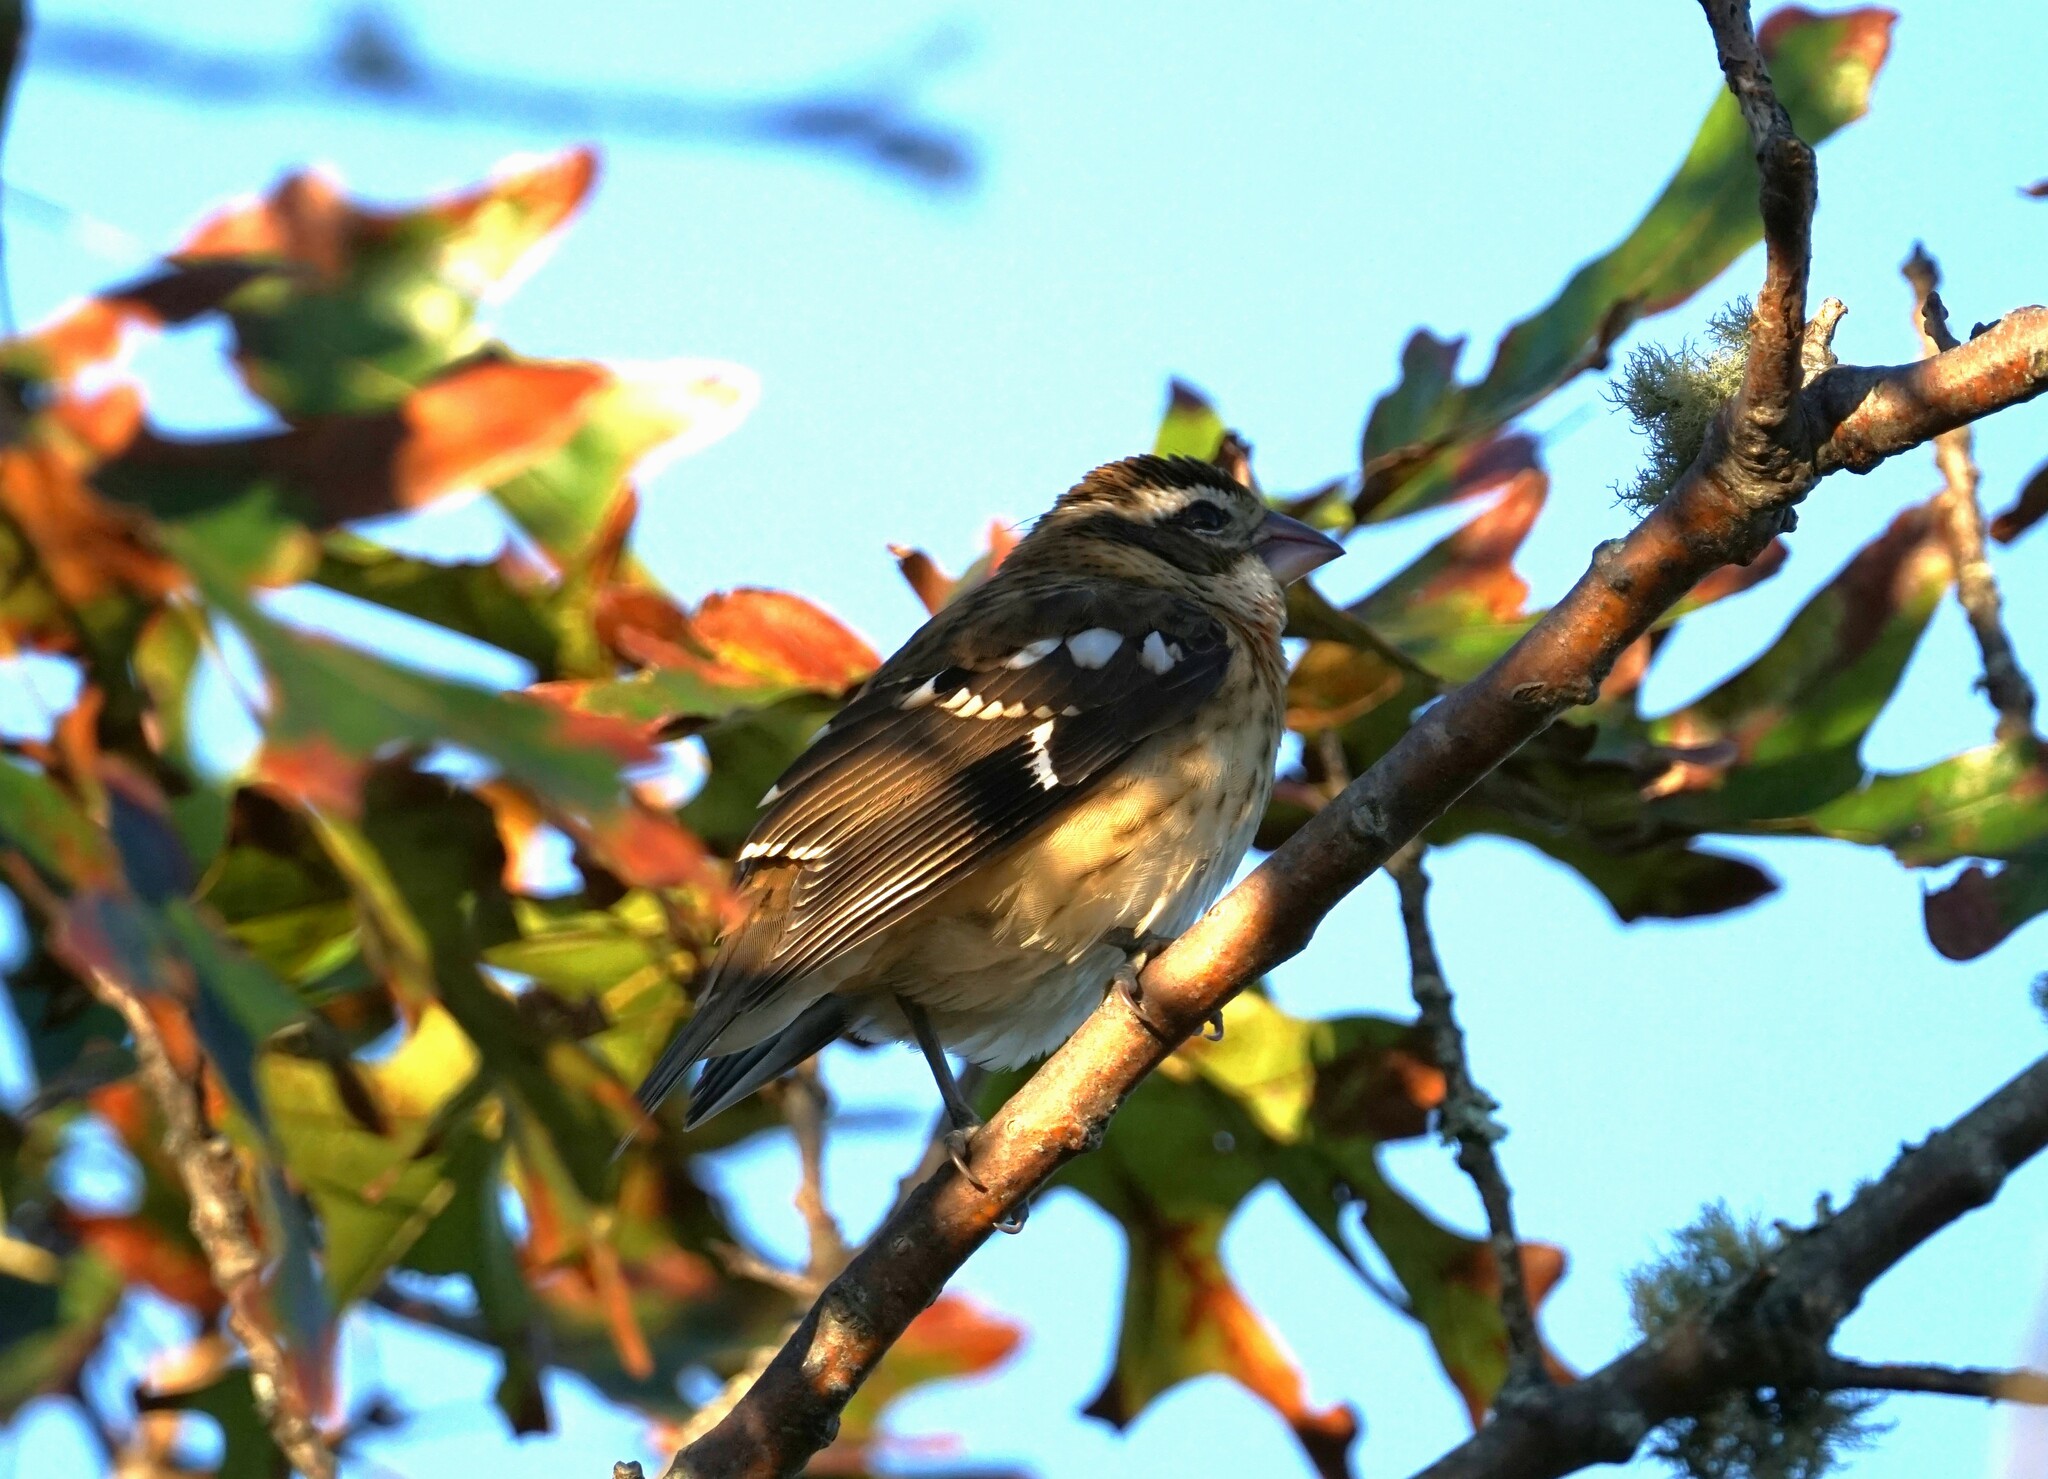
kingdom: Animalia
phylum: Chordata
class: Aves
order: Passeriformes
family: Cardinalidae
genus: Pheucticus
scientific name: Pheucticus ludovicianus
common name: Rose-breasted grosbeak
